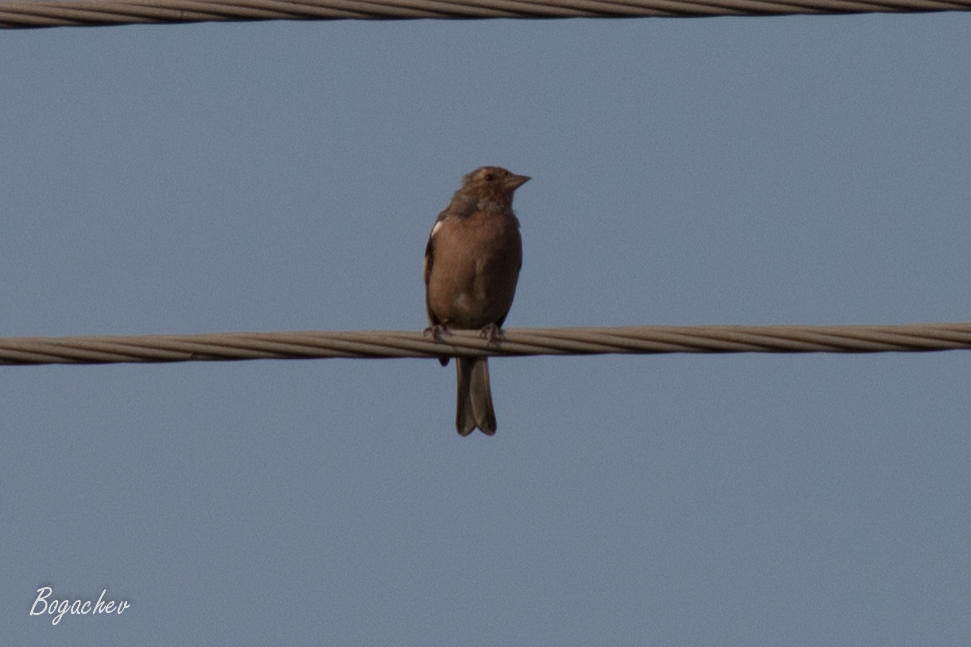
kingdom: Animalia
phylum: Chordata
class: Aves
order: Passeriformes
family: Fringillidae
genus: Fringilla
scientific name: Fringilla coelebs
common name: Common chaffinch
